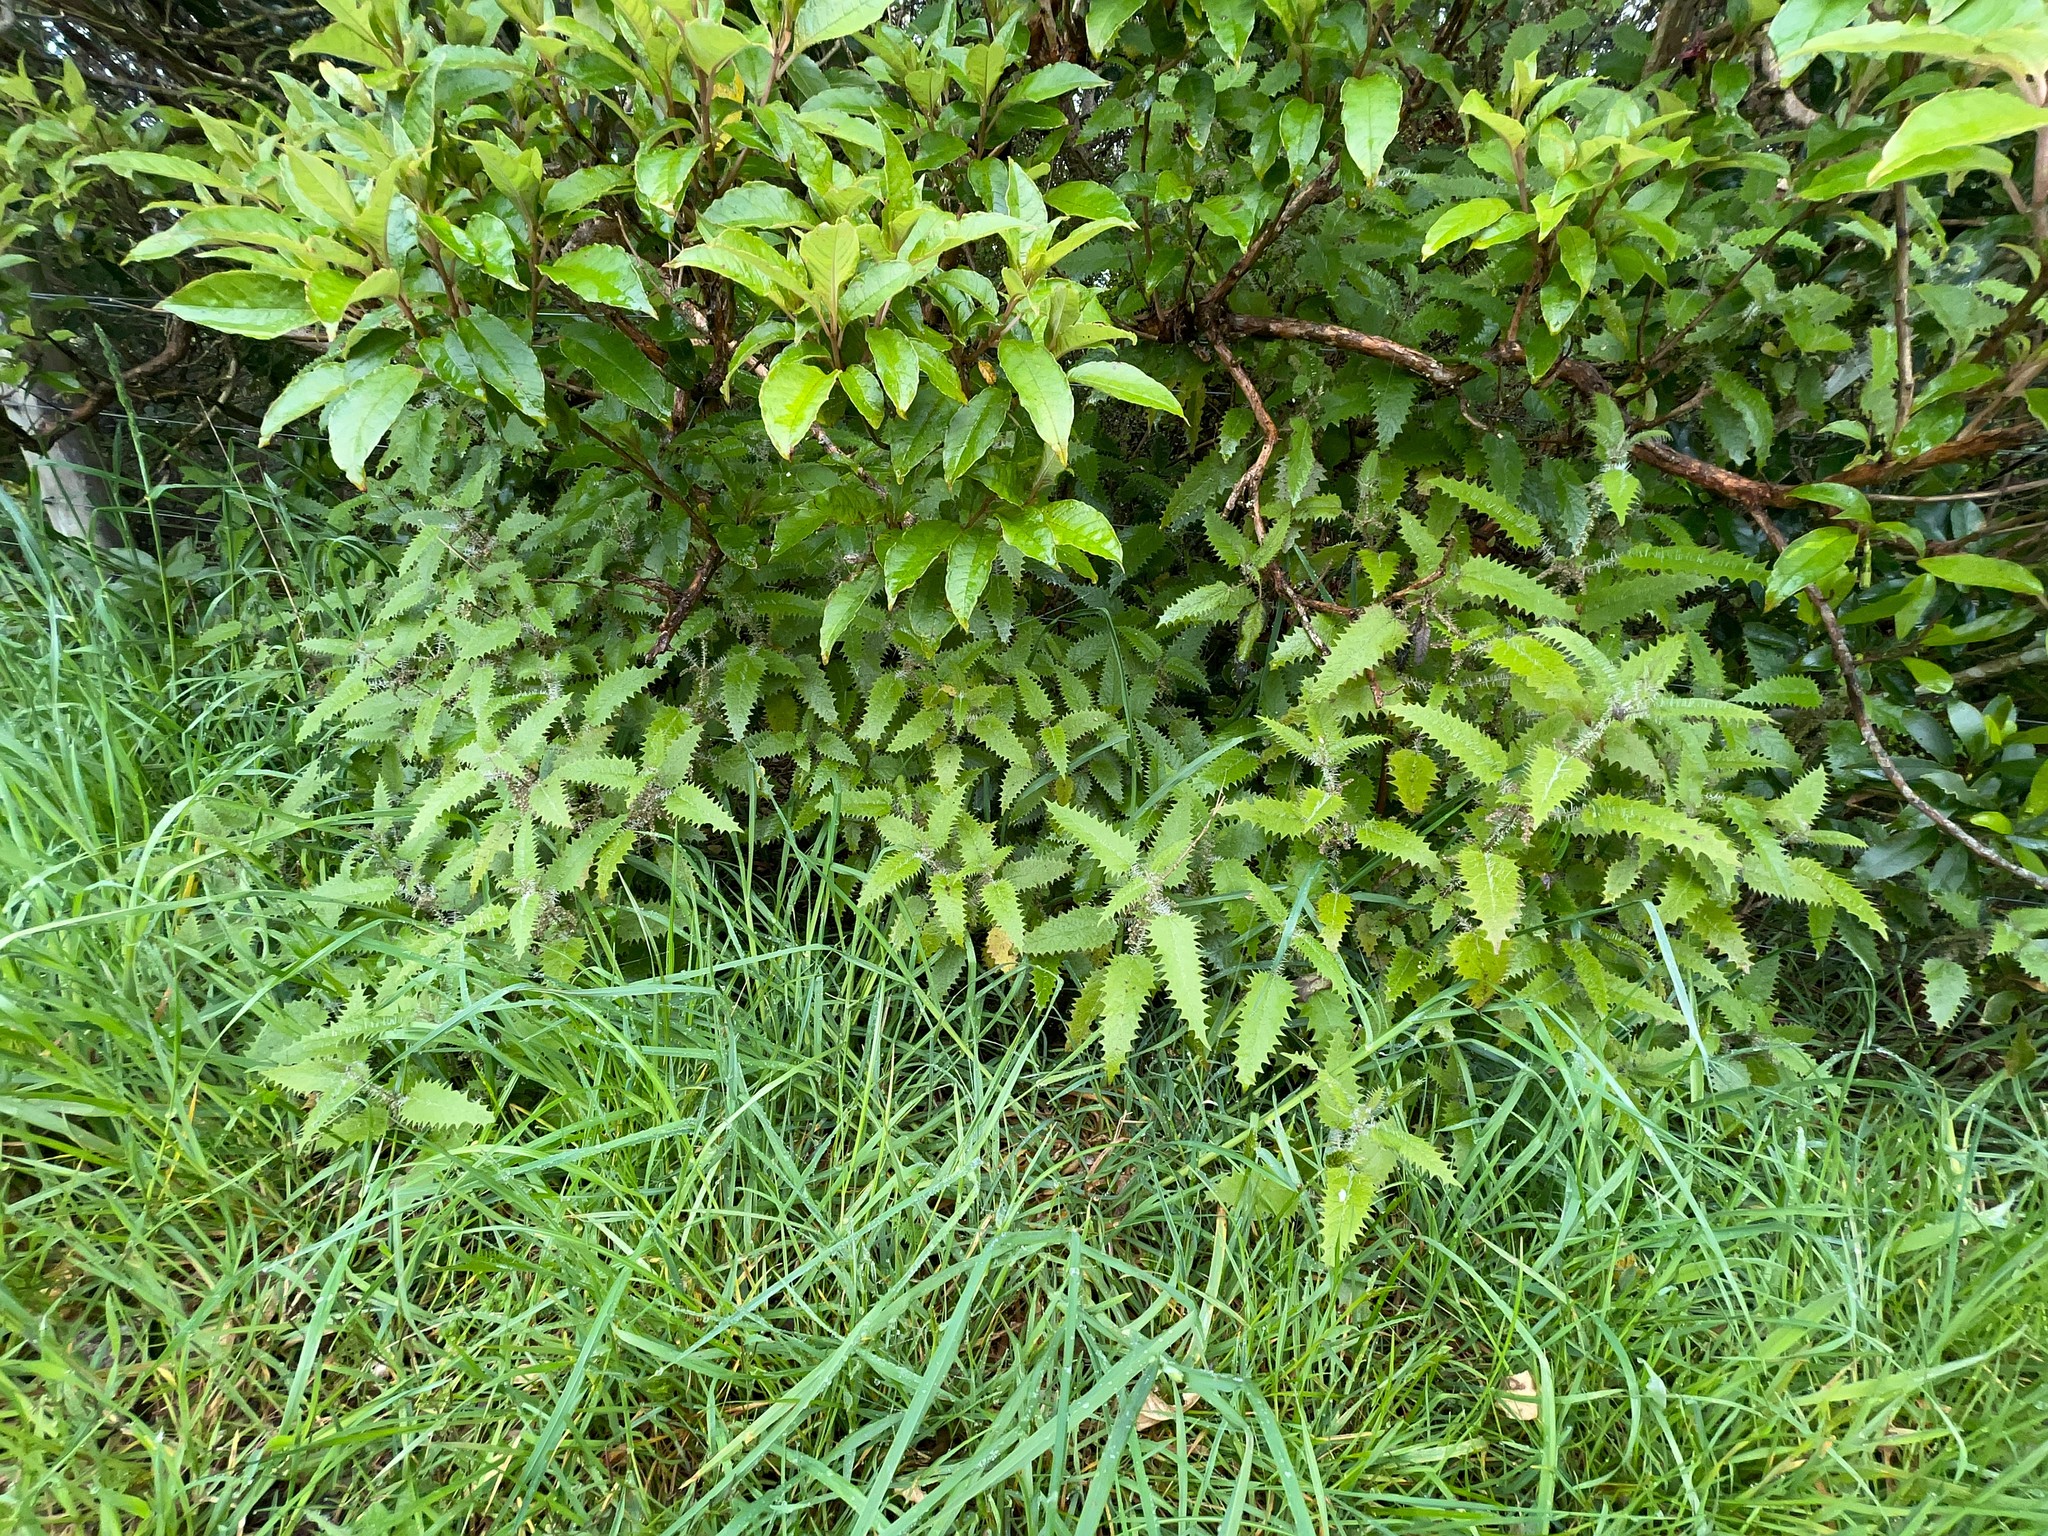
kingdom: Plantae
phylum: Tracheophyta
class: Magnoliopsida
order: Rosales
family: Urticaceae
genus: Urtica
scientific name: Urtica ferox
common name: Tree nettle
